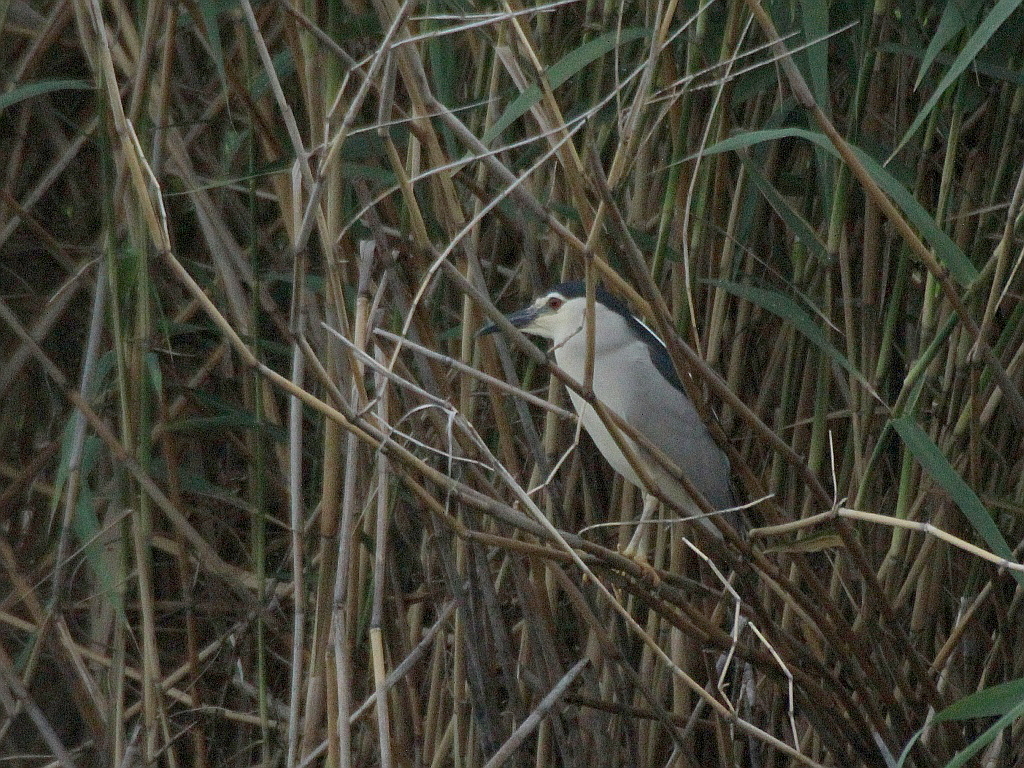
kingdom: Animalia
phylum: Chordata
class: Aves
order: Pelecaniformes
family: Ardeidae
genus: Nycticorax
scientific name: Nycticorax nycticorax
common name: Black-crowned night heron
